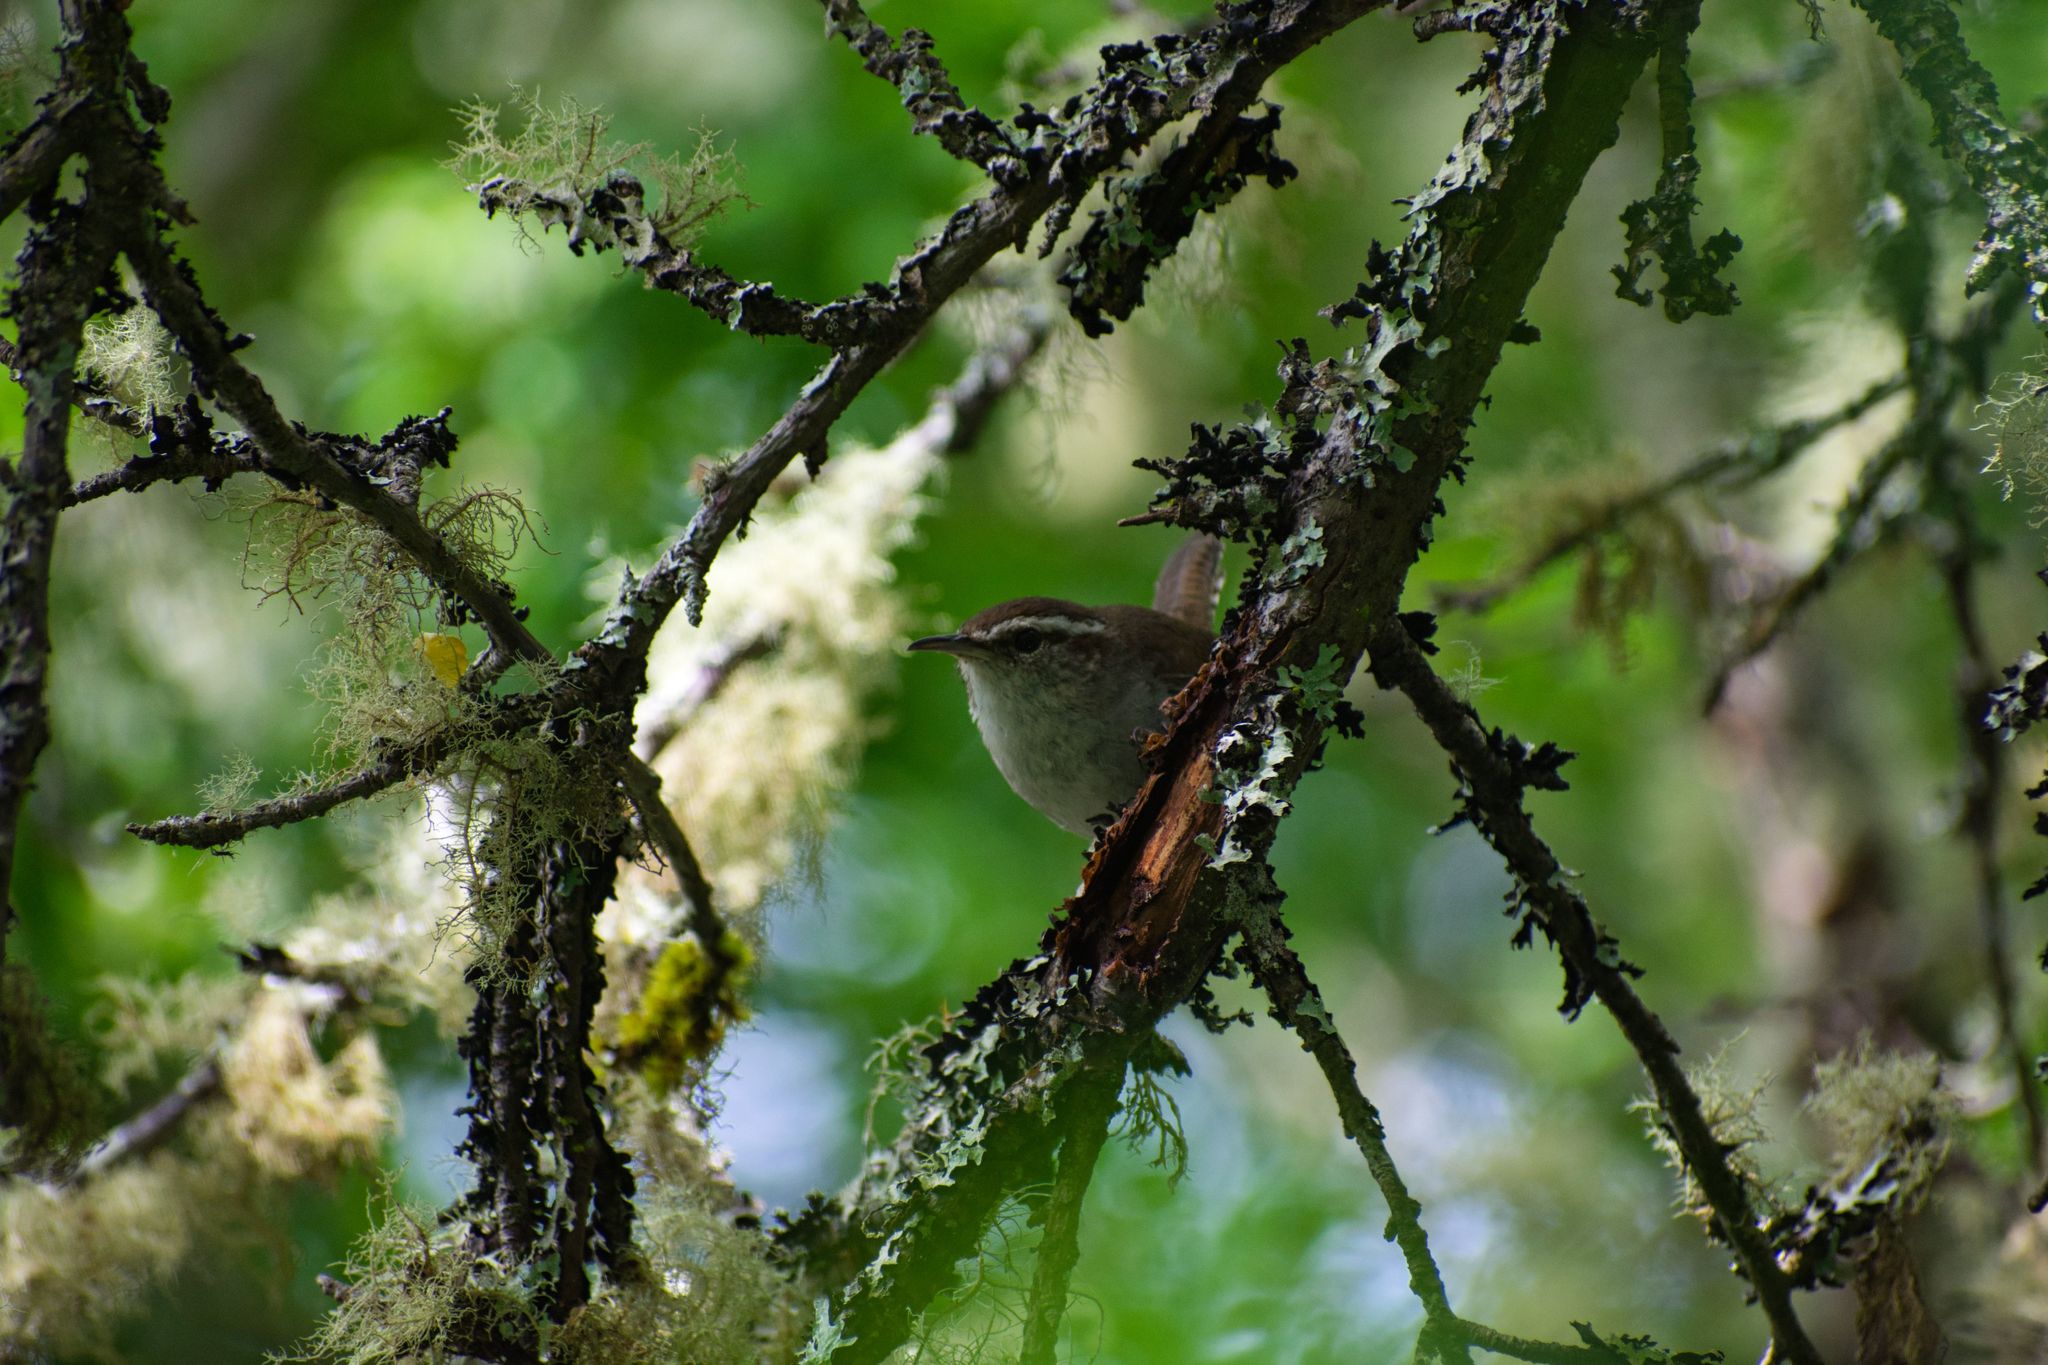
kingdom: Animalia
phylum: Chordata
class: Aves
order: Passeriformes
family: Troglodytidae
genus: Thryomanes
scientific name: Thryomanes bewickii
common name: Bewick's wren
